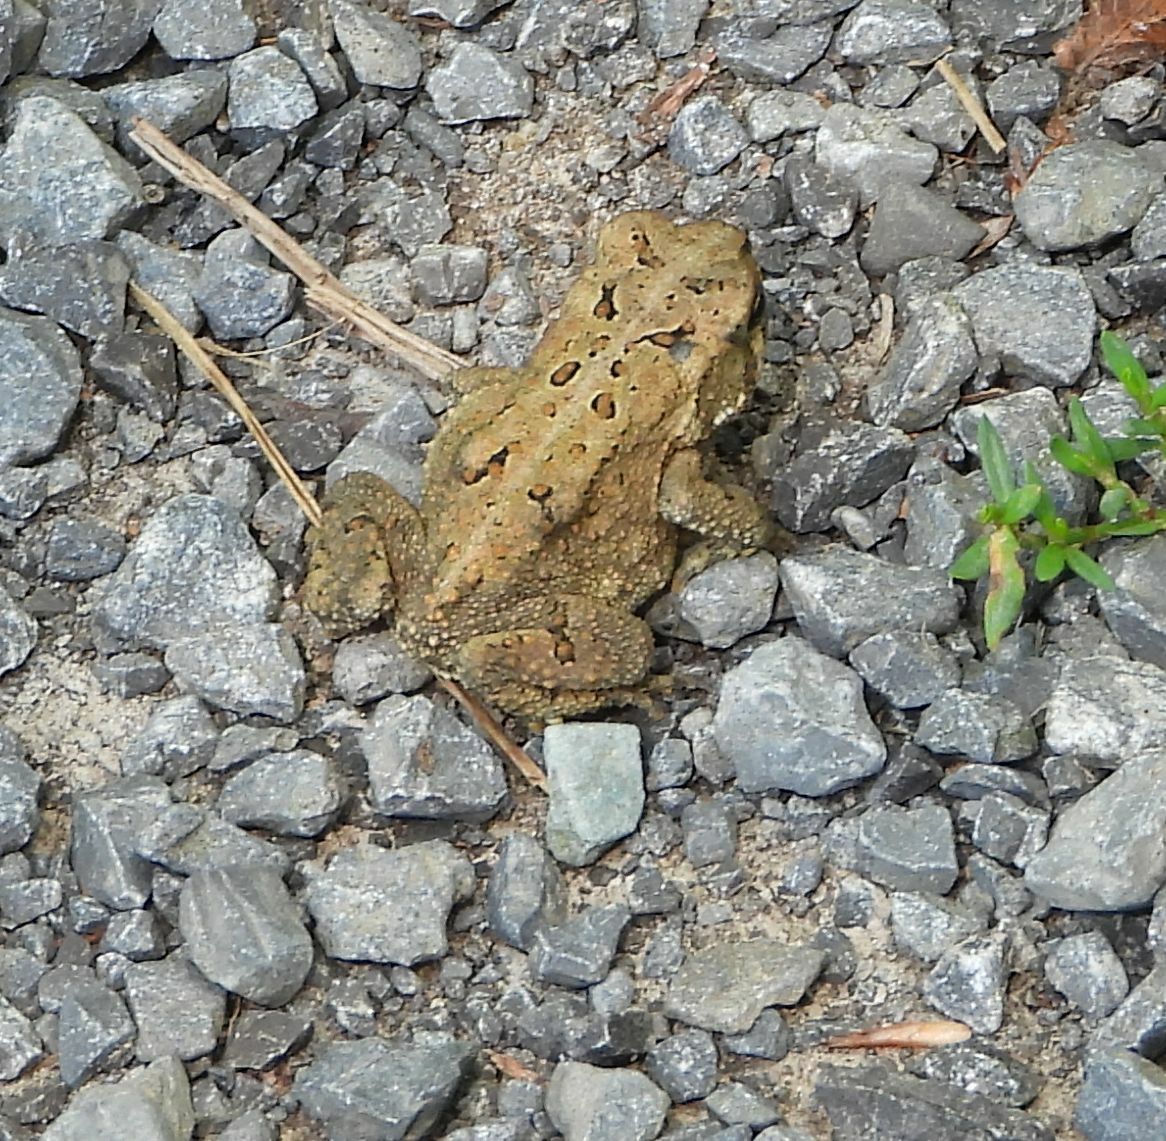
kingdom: Animalia
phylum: Chordata
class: Amphibia
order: Anura
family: Bufonidae
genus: Anaxyrus
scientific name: Anaxyrus americanus
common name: American toad
